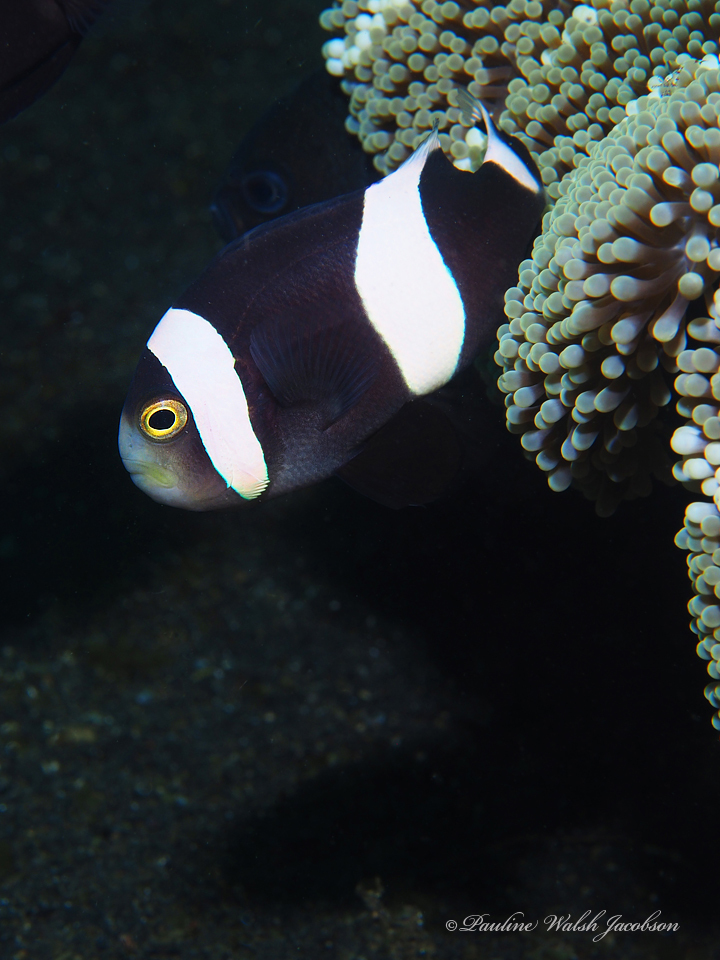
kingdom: Animalia
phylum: Chordata
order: Perciformes
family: Pomacentridae
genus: Amphiprion
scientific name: Amphiprion polymnus
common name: Saddleback anemonefish
